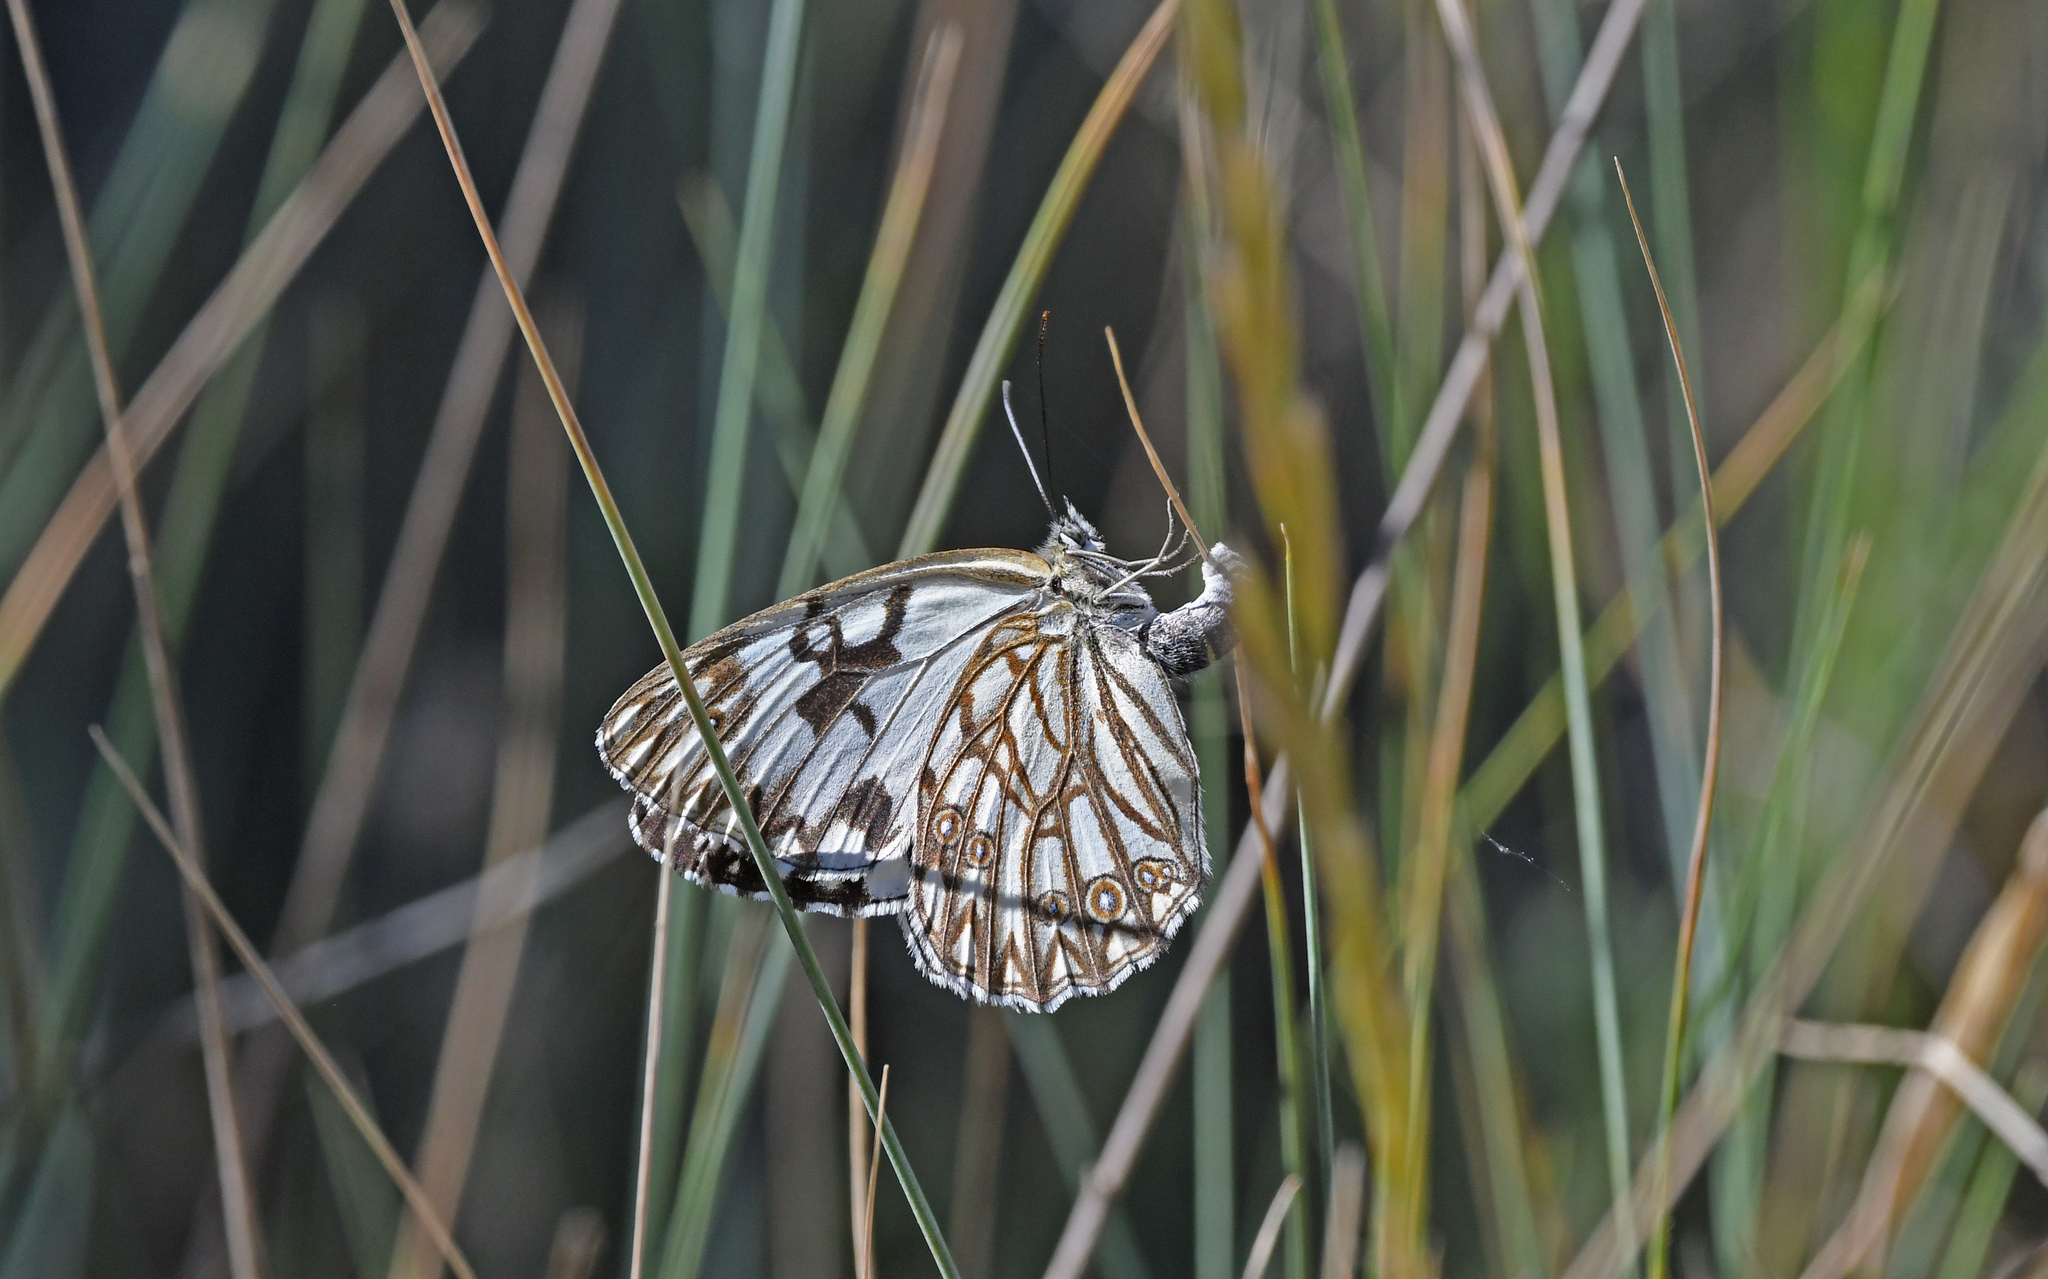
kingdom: Animalia
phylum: Arthropoda
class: Insecta
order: Lepidoptera
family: Nymphalidae
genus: Melanargia
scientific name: Melanargia occitanica
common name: Western marbled white
